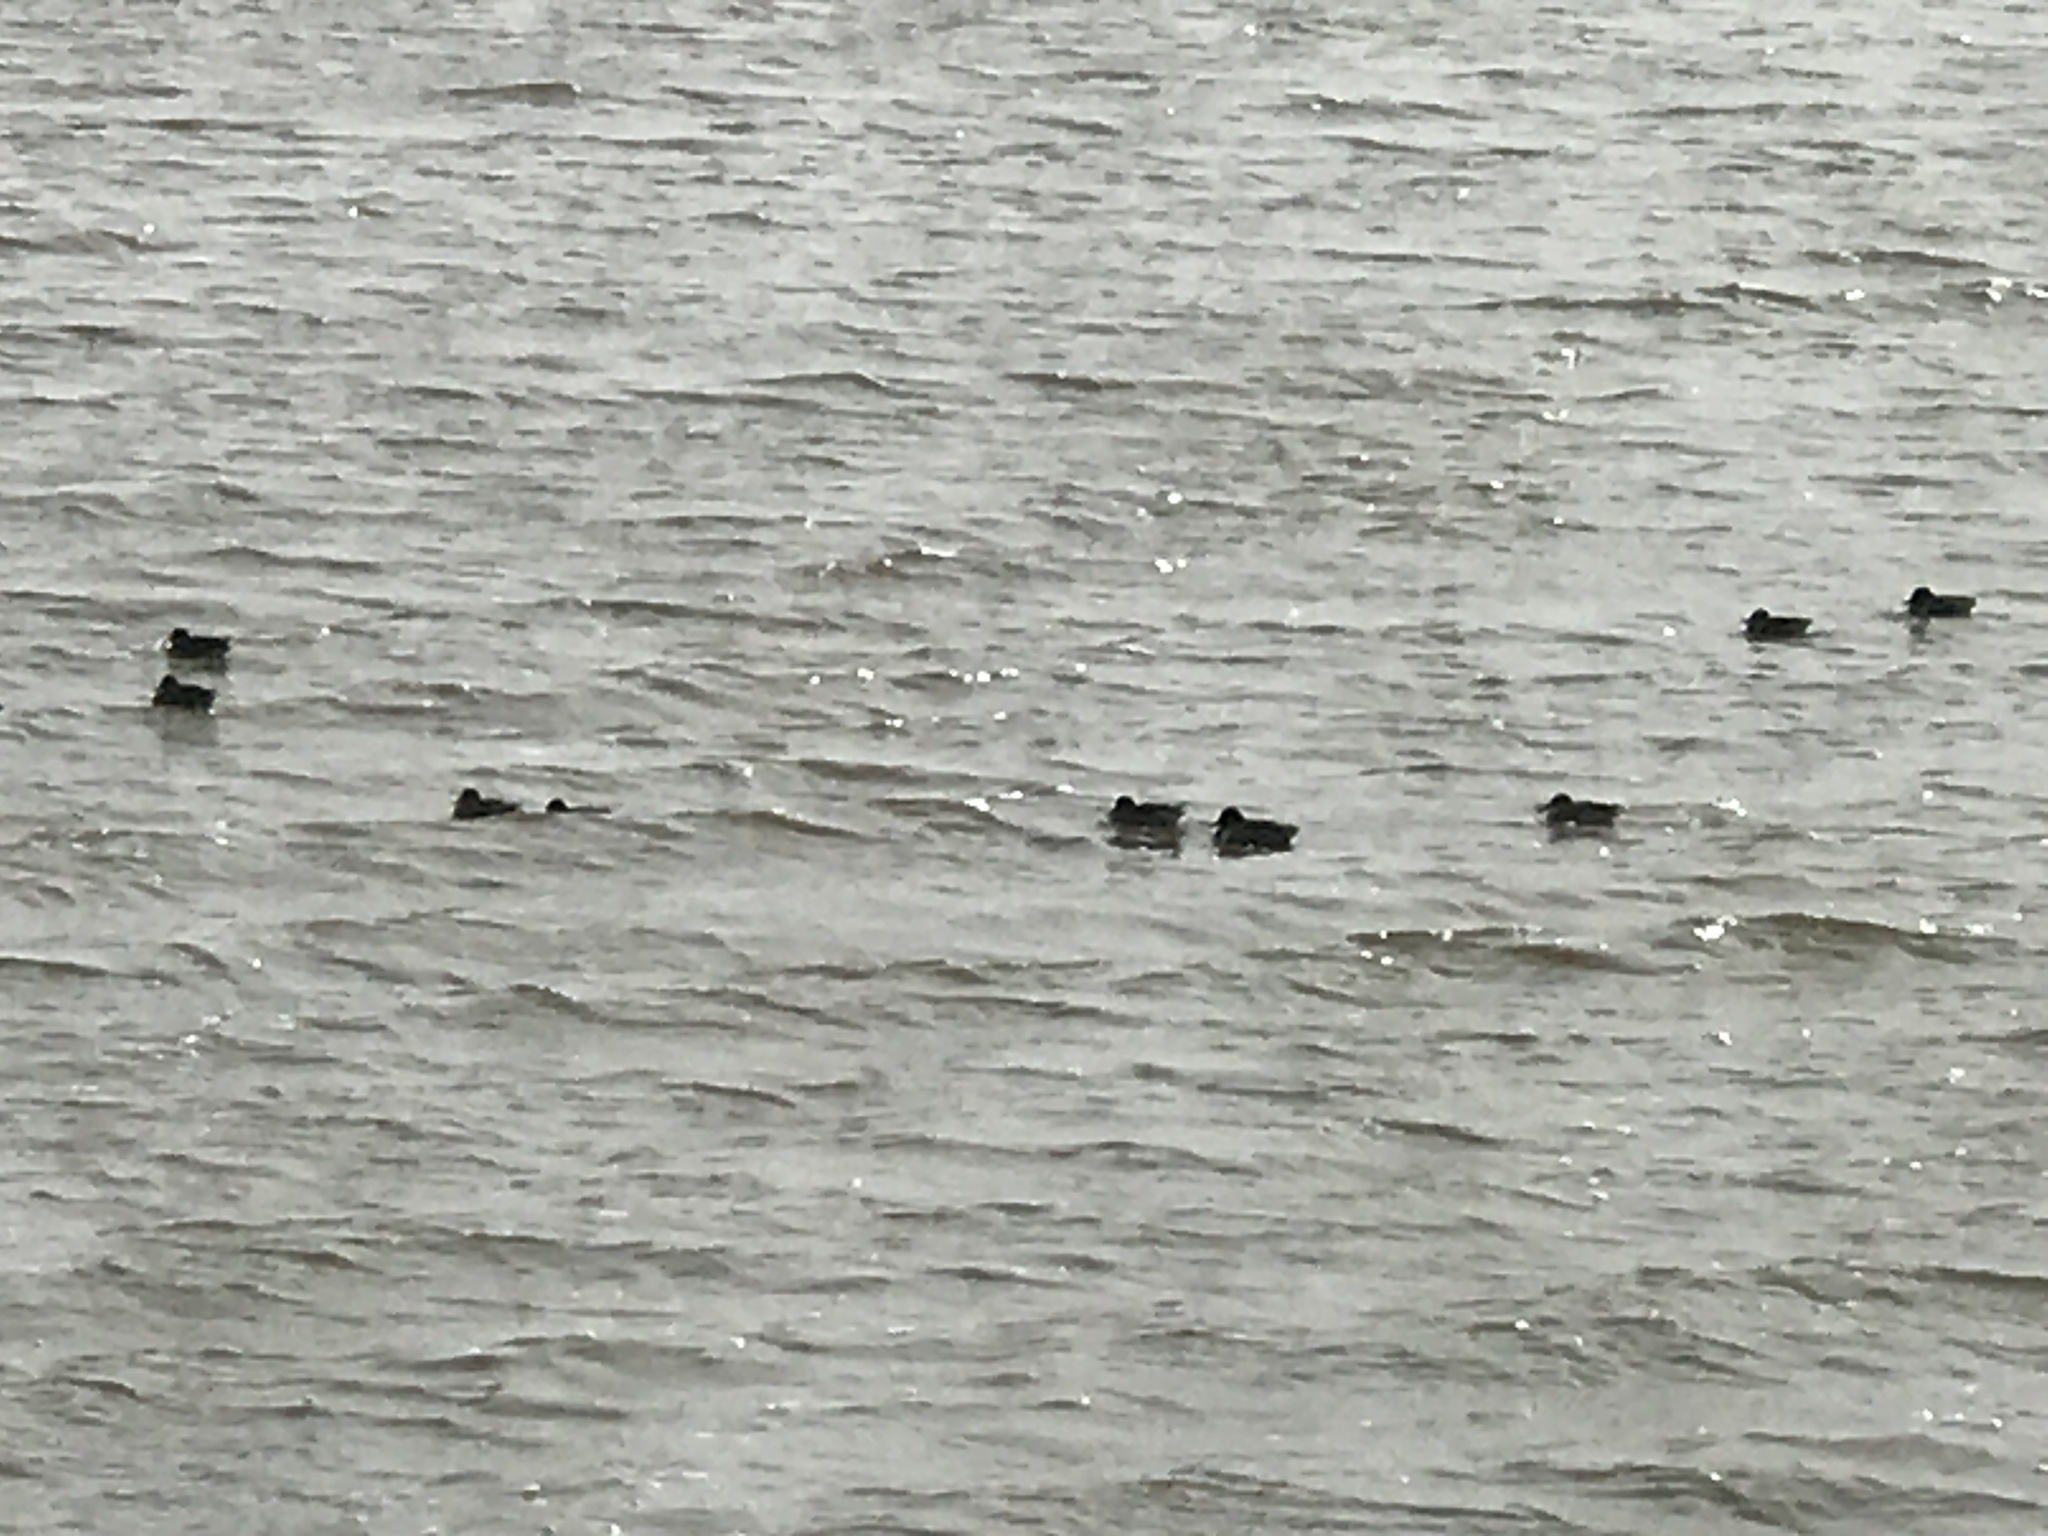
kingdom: Animalia
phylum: Chordata
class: Aves
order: Anseriformes
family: Anatidae
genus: Anas
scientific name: Anas crecca
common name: Eurasian teal
